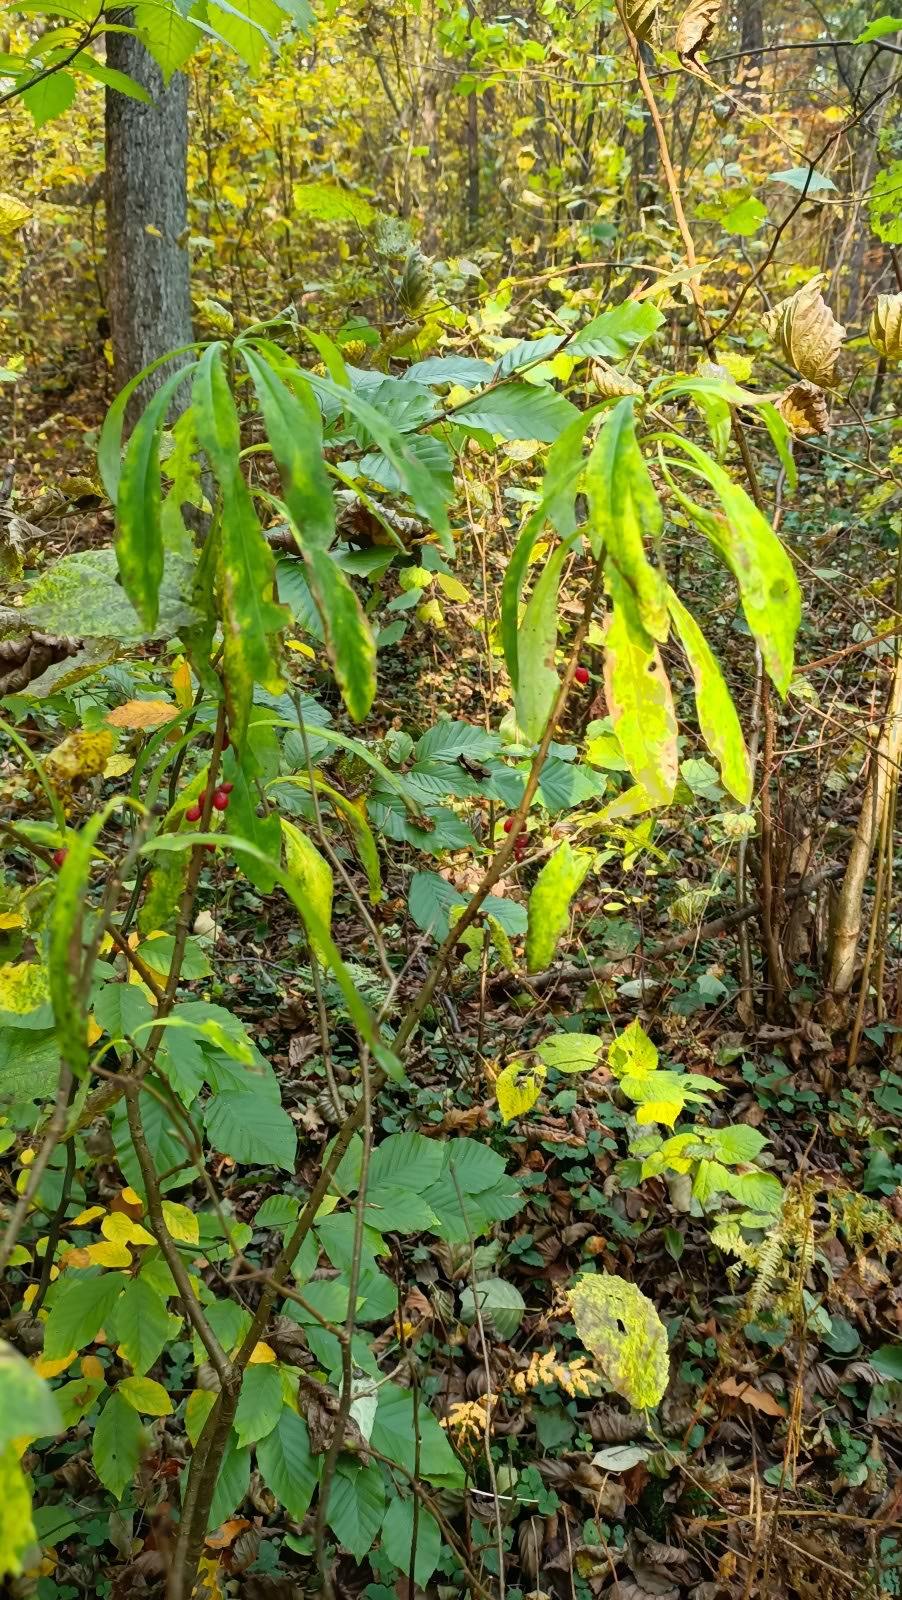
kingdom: Plantae
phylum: Tracheophyta
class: Magnoliopsida
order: Malvales
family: Thymelaeaceae
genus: Daphne
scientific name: Daphne mezereum
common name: Mezereon
